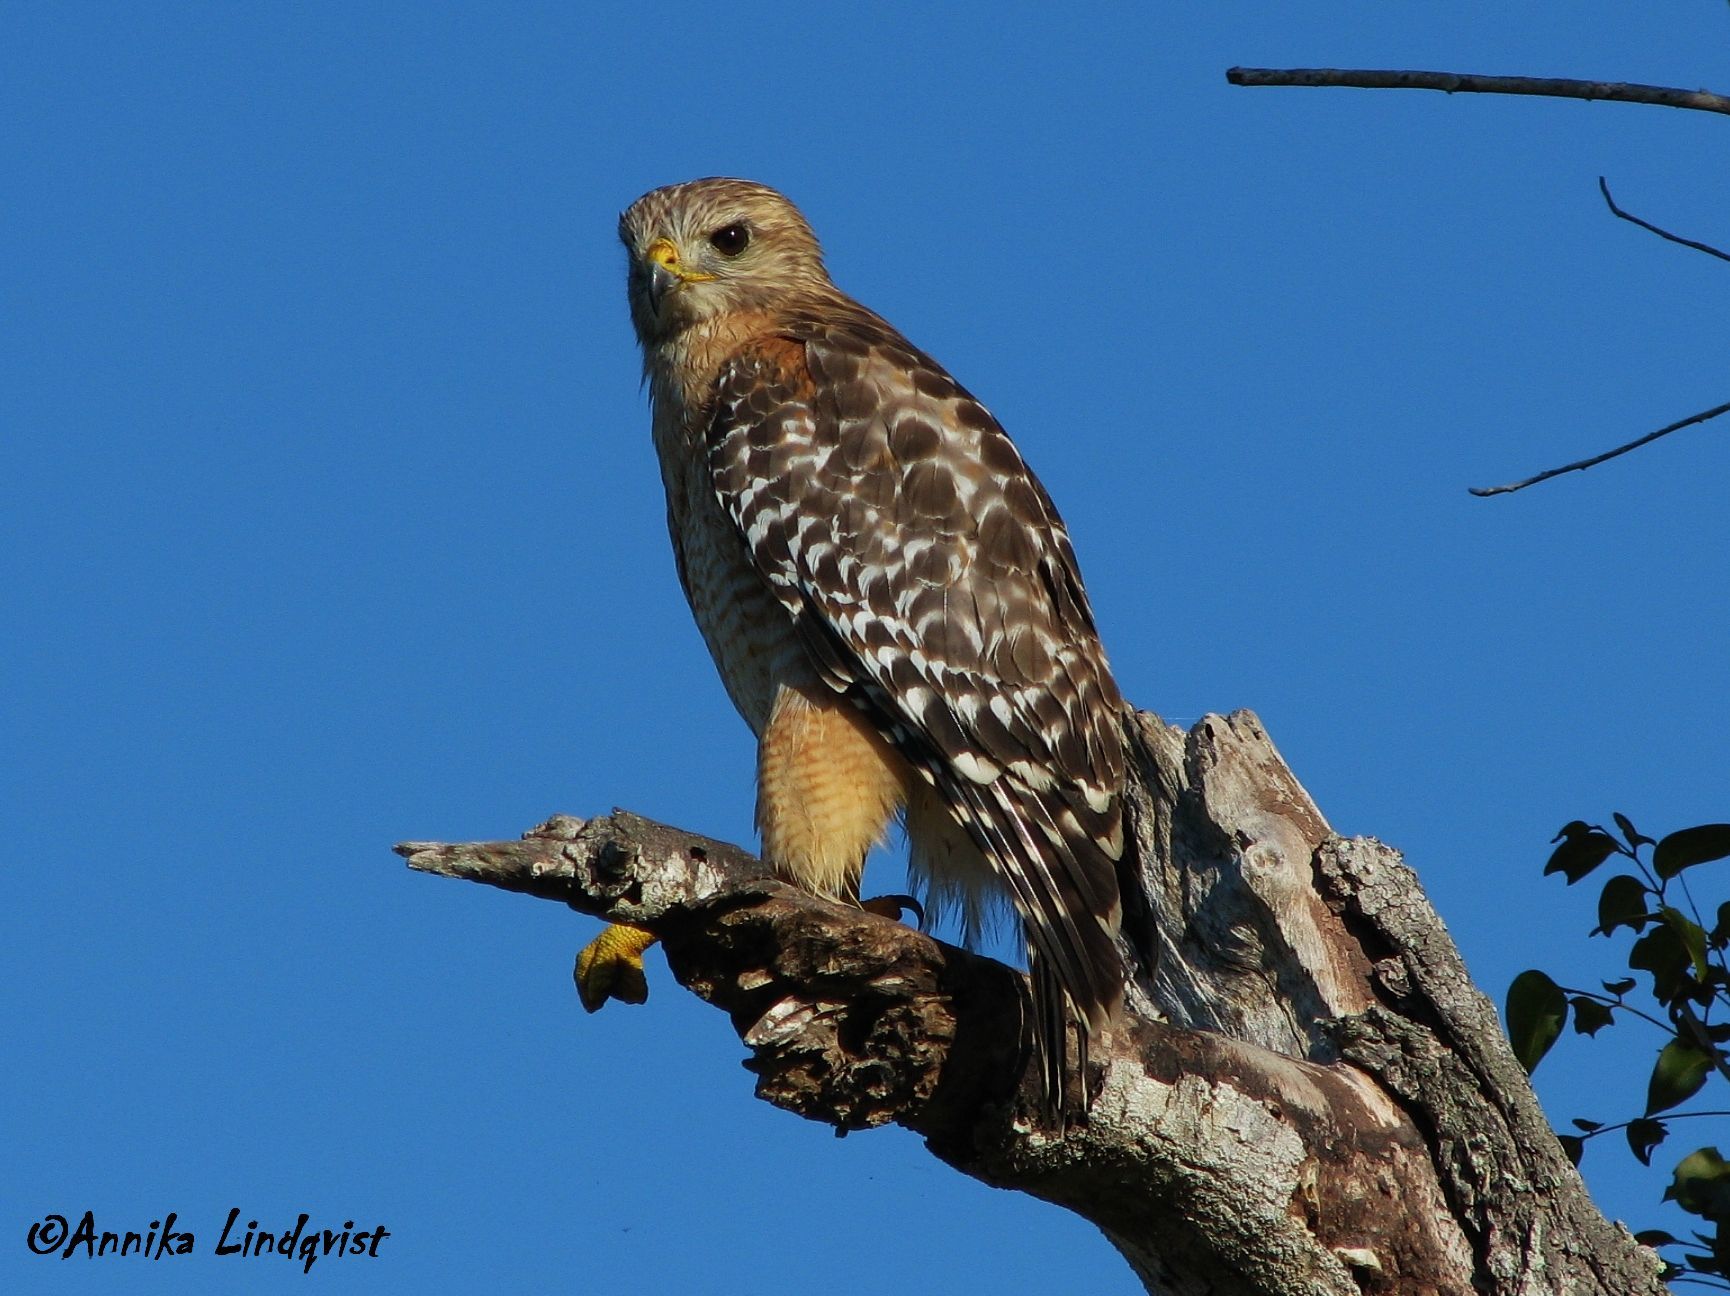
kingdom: Animalia
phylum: Chordata
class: Aves
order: Accipitriformes
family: Accipitridae
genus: Buteo
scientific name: Buteo lineatus
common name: Red-shouldered hawk
